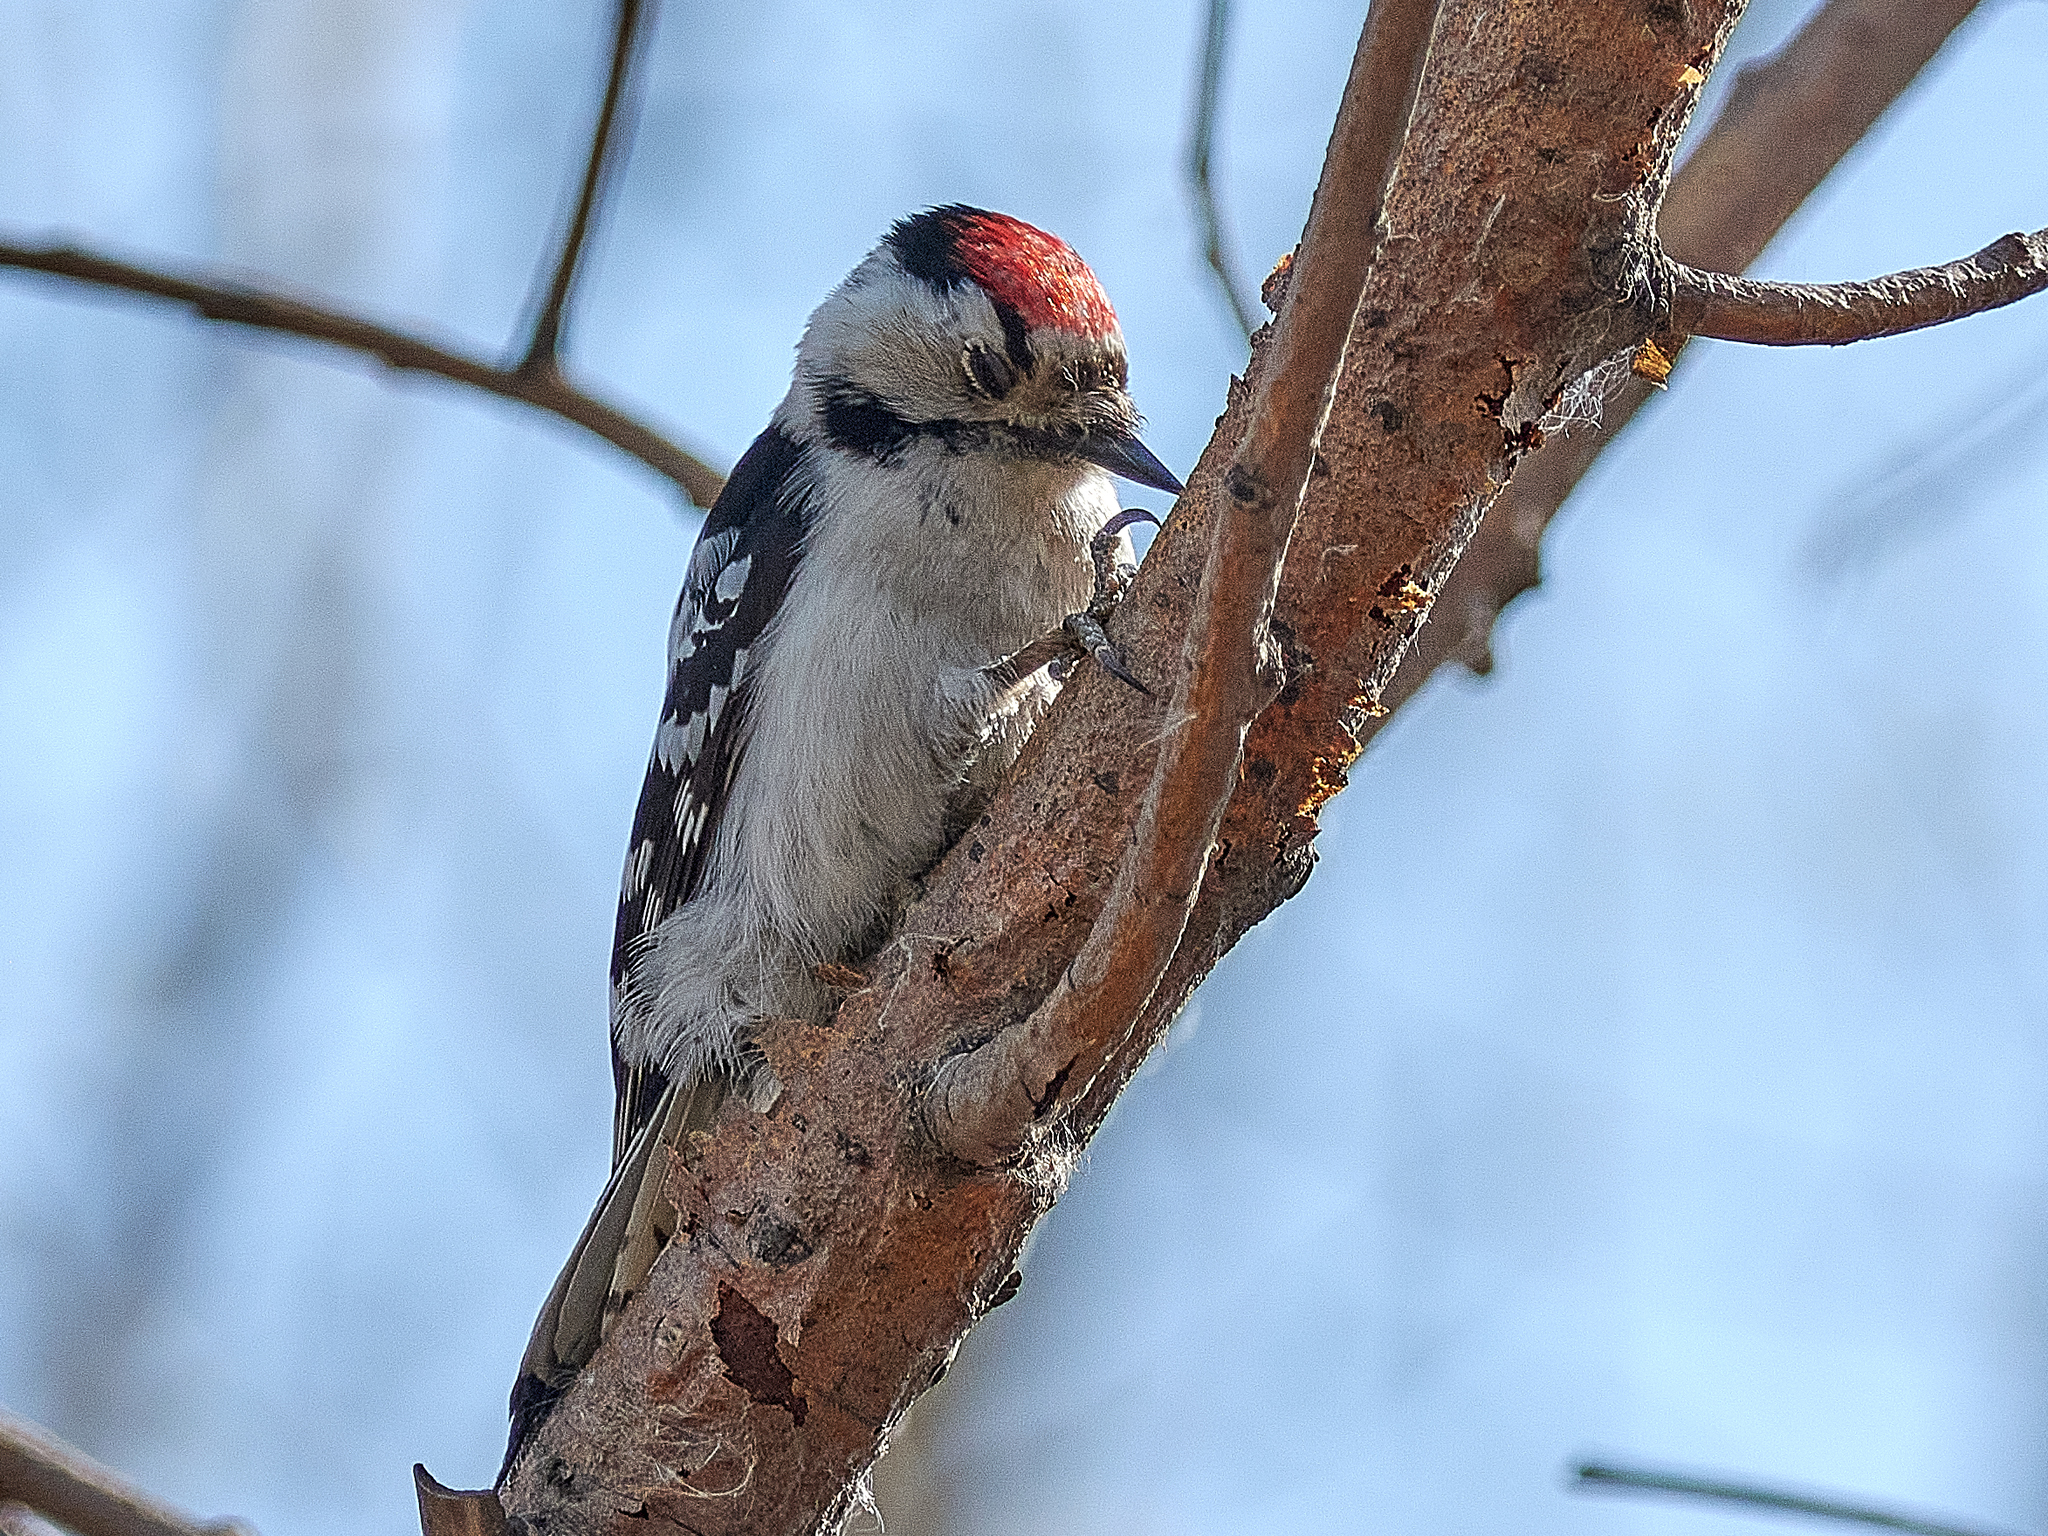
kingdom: Animalia
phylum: Chordata
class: Aves
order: Piciformes
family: Picidae
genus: Dryobates
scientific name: Dryobates minor
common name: Lesser spotted woodpecker
